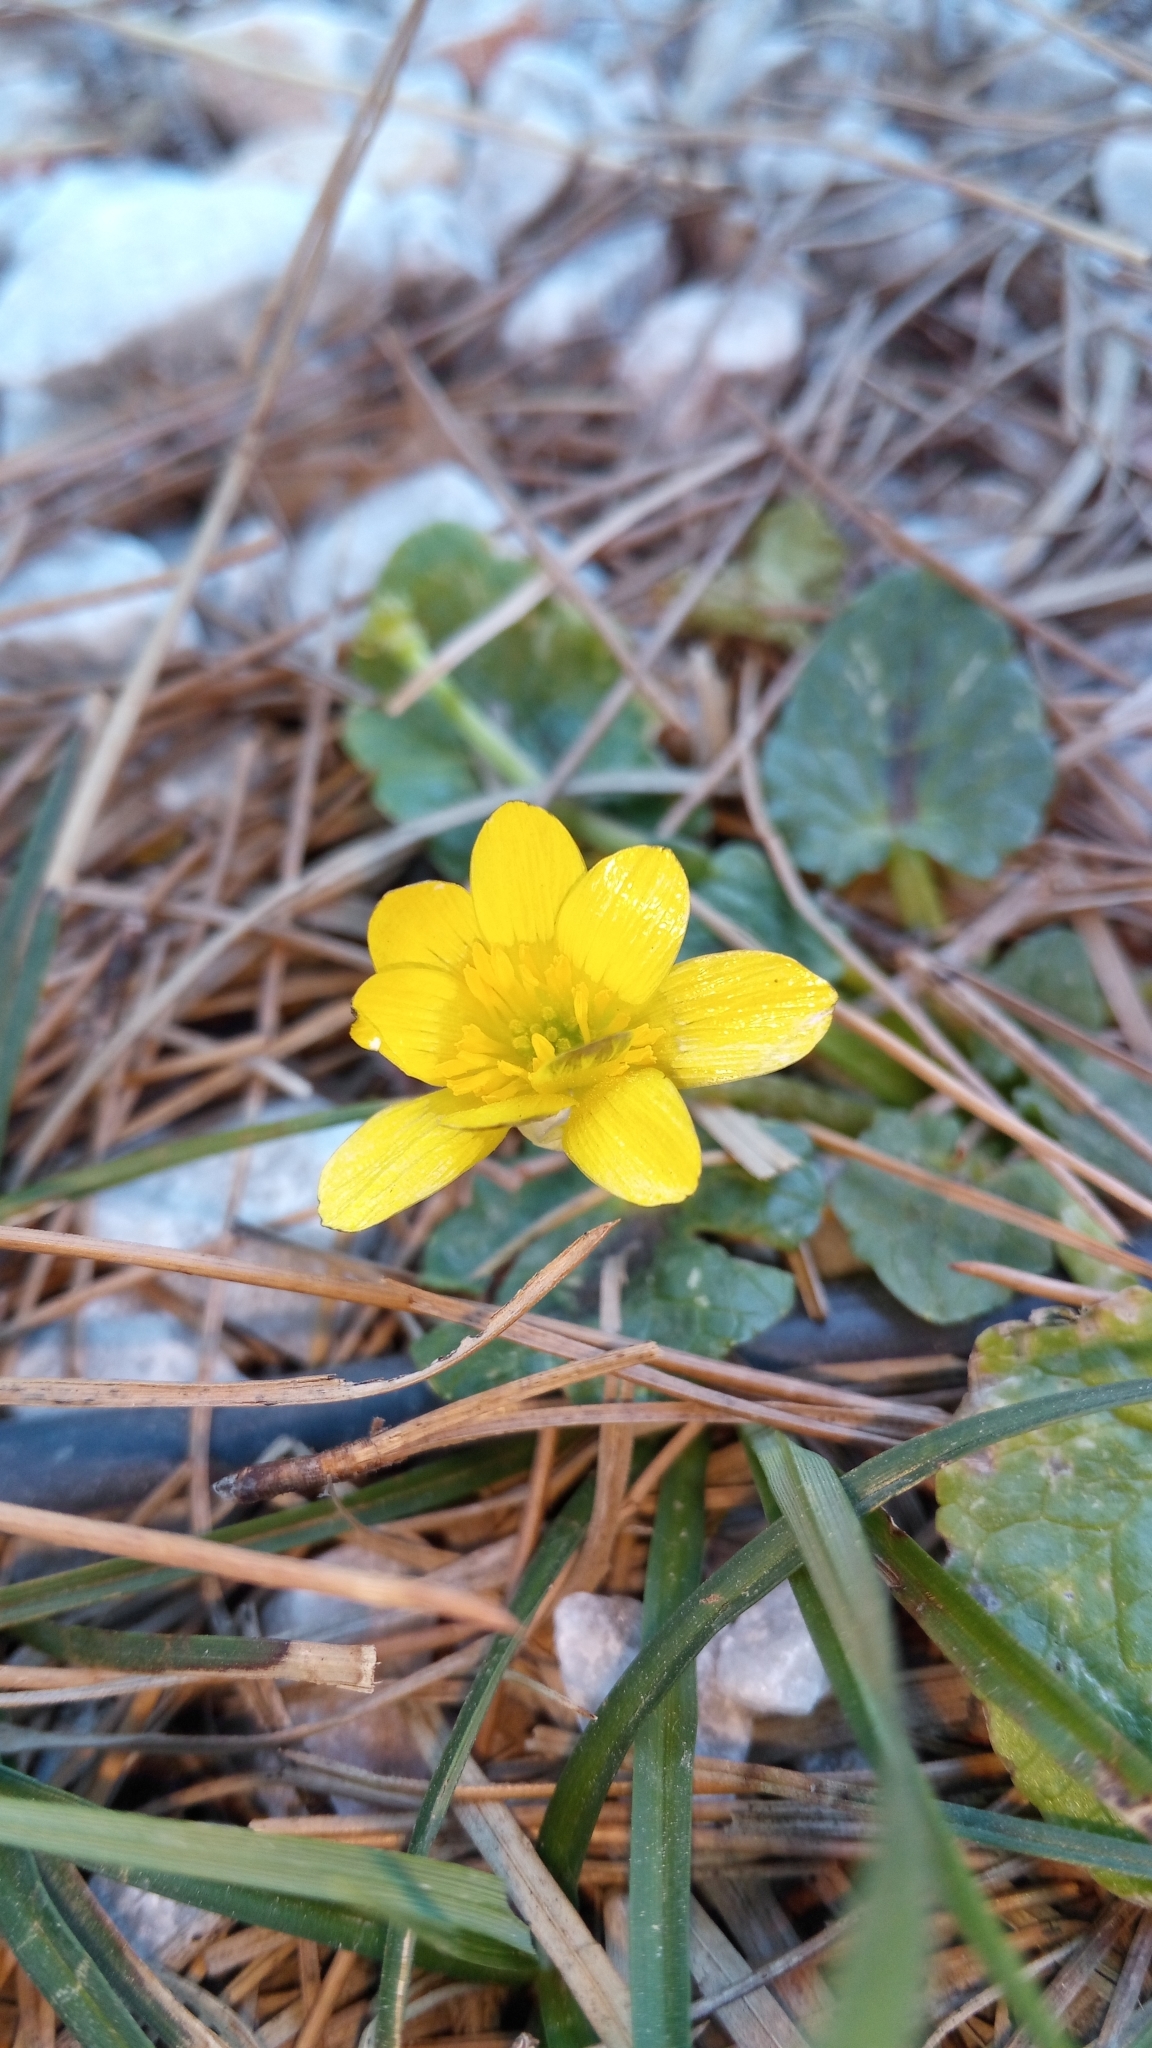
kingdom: Plantae
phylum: Tracheophyta
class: Magnoliopsida
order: Ranunculales
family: Ranunculaceae
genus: Ficaria
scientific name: Ficaria verna
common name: Lesser celandine
